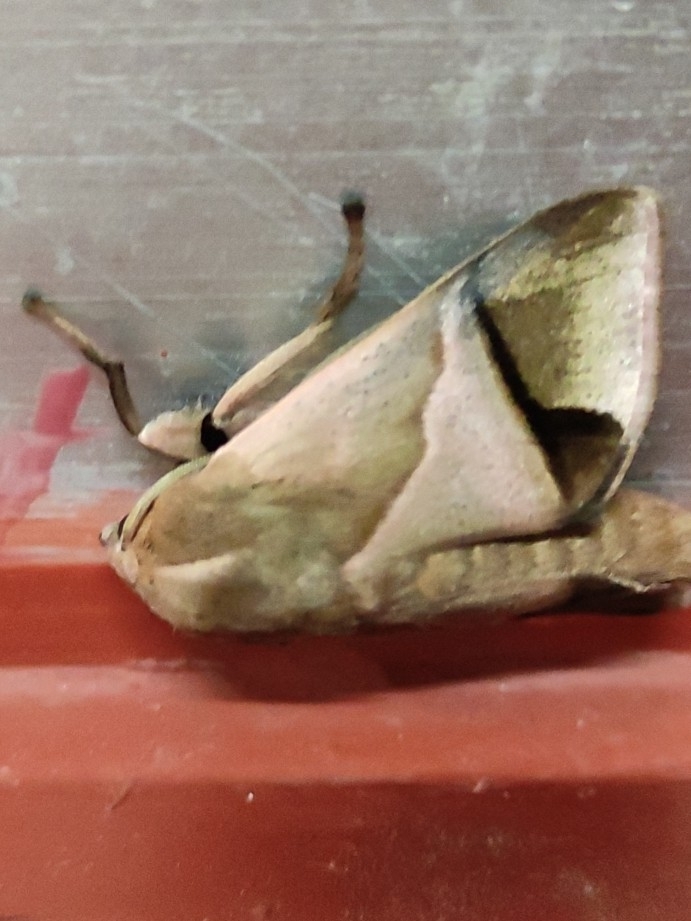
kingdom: Animalia
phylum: Arthropoda
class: Insecta
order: Lepidoptera
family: Limacodidae
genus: Setora
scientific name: Setora postornata
